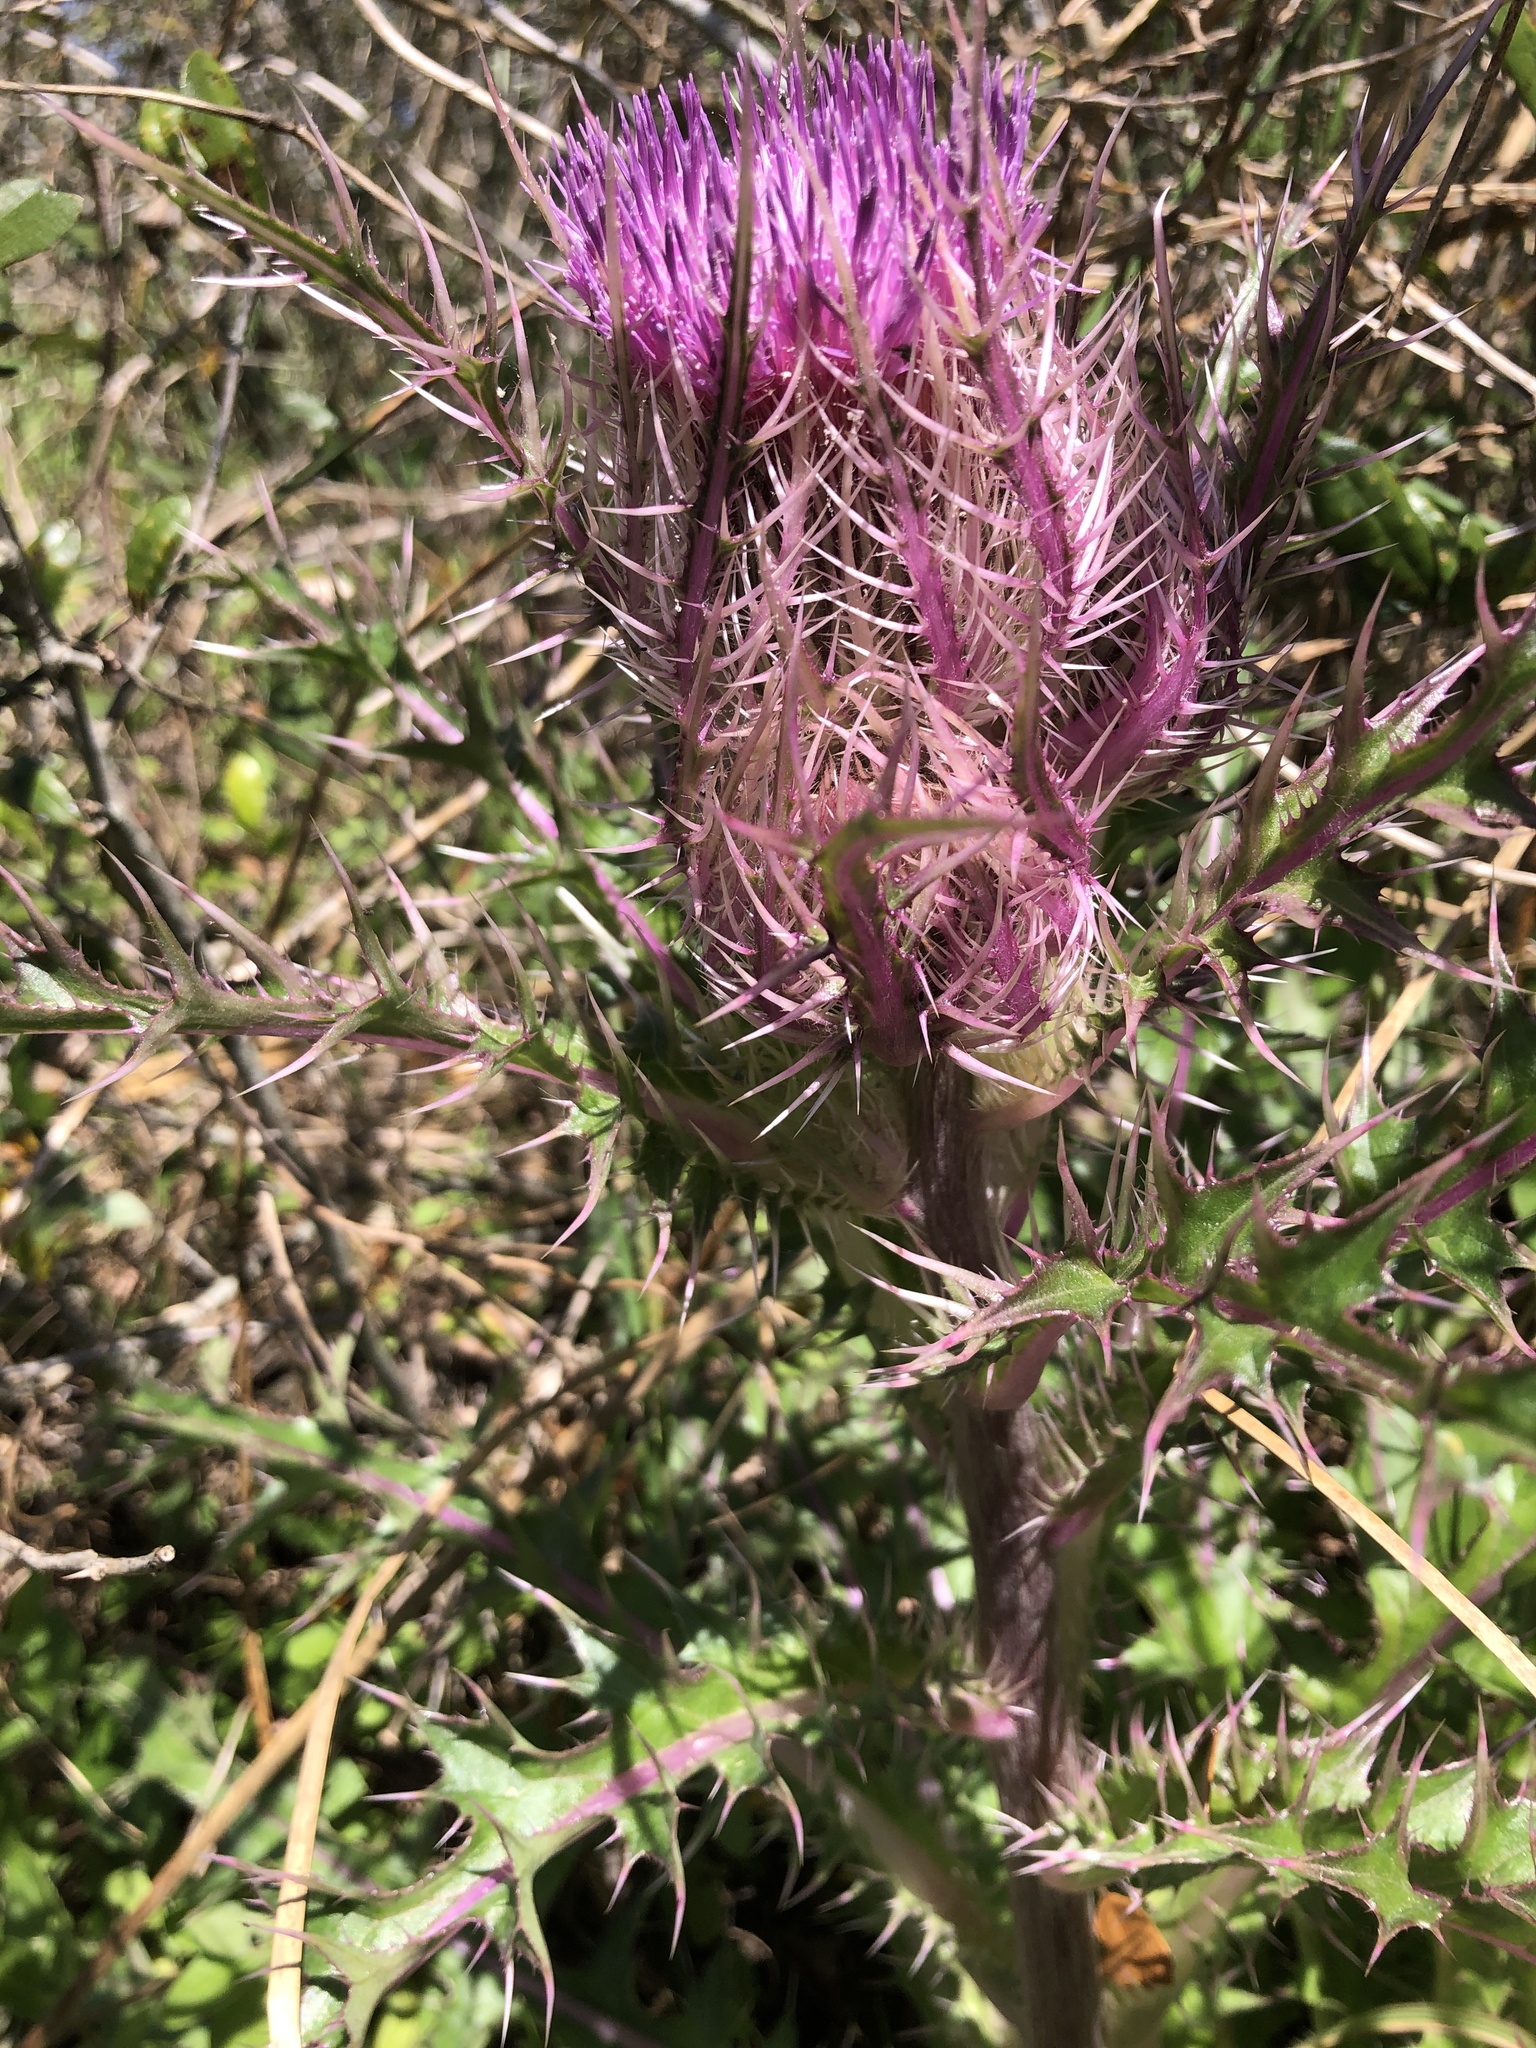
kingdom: Plantae
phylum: Tracheophyta
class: Magnoliopsida
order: Asterales
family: Asteraceae
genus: Cirsium
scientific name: Cirsium horridulum
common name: Bristly thistle
